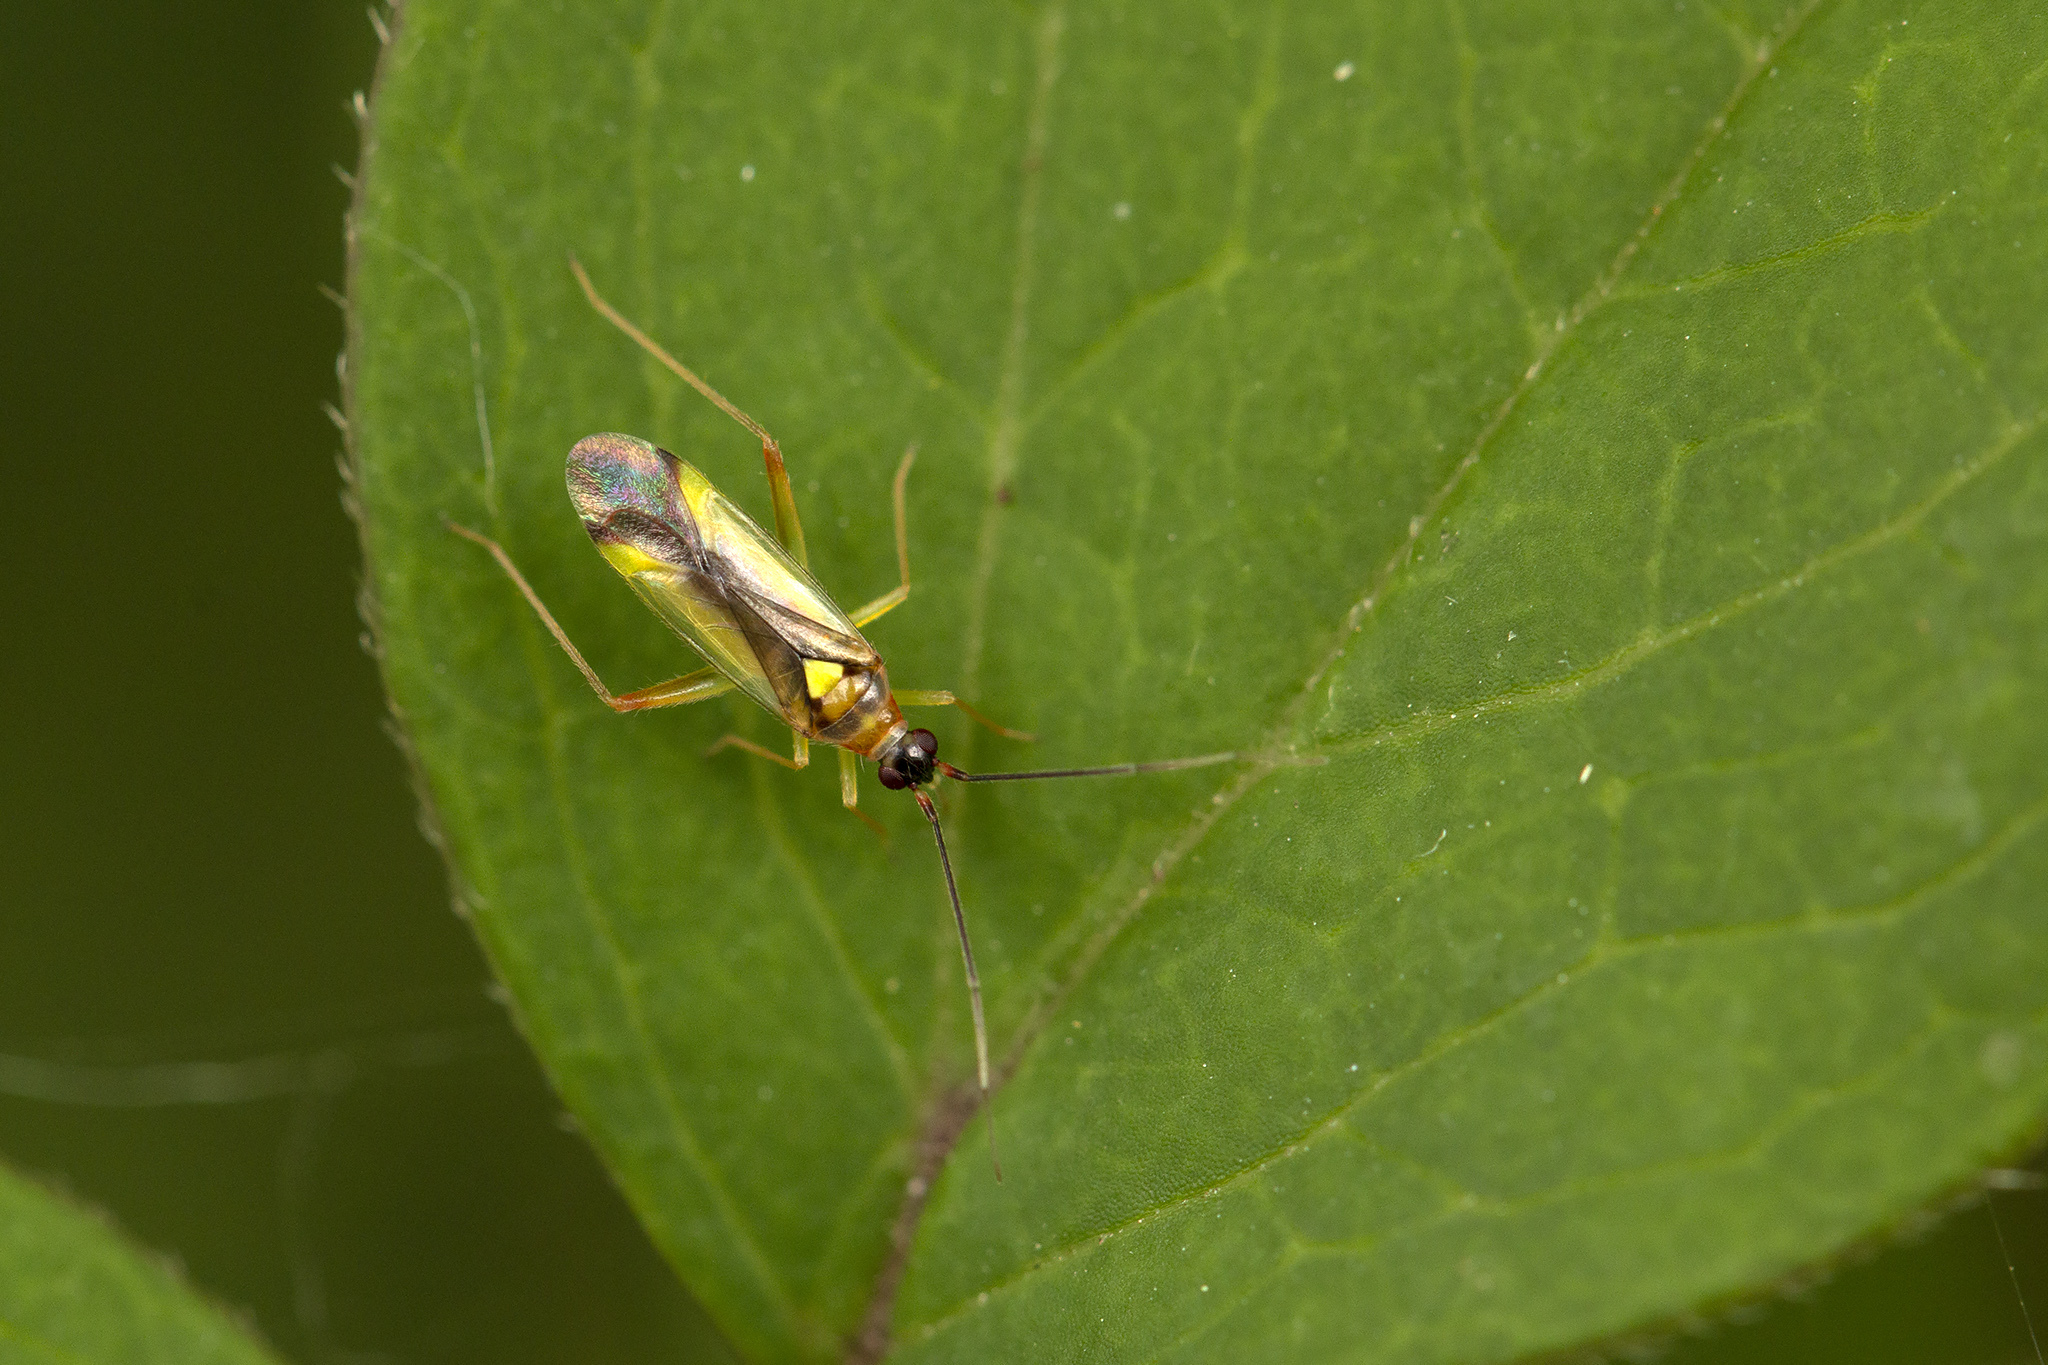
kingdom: Animalia
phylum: Arthropoda
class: Insecta
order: Hemiptera
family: Miridae
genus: Campyloneura
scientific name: Campyloneura virgula
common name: Predatory bug
